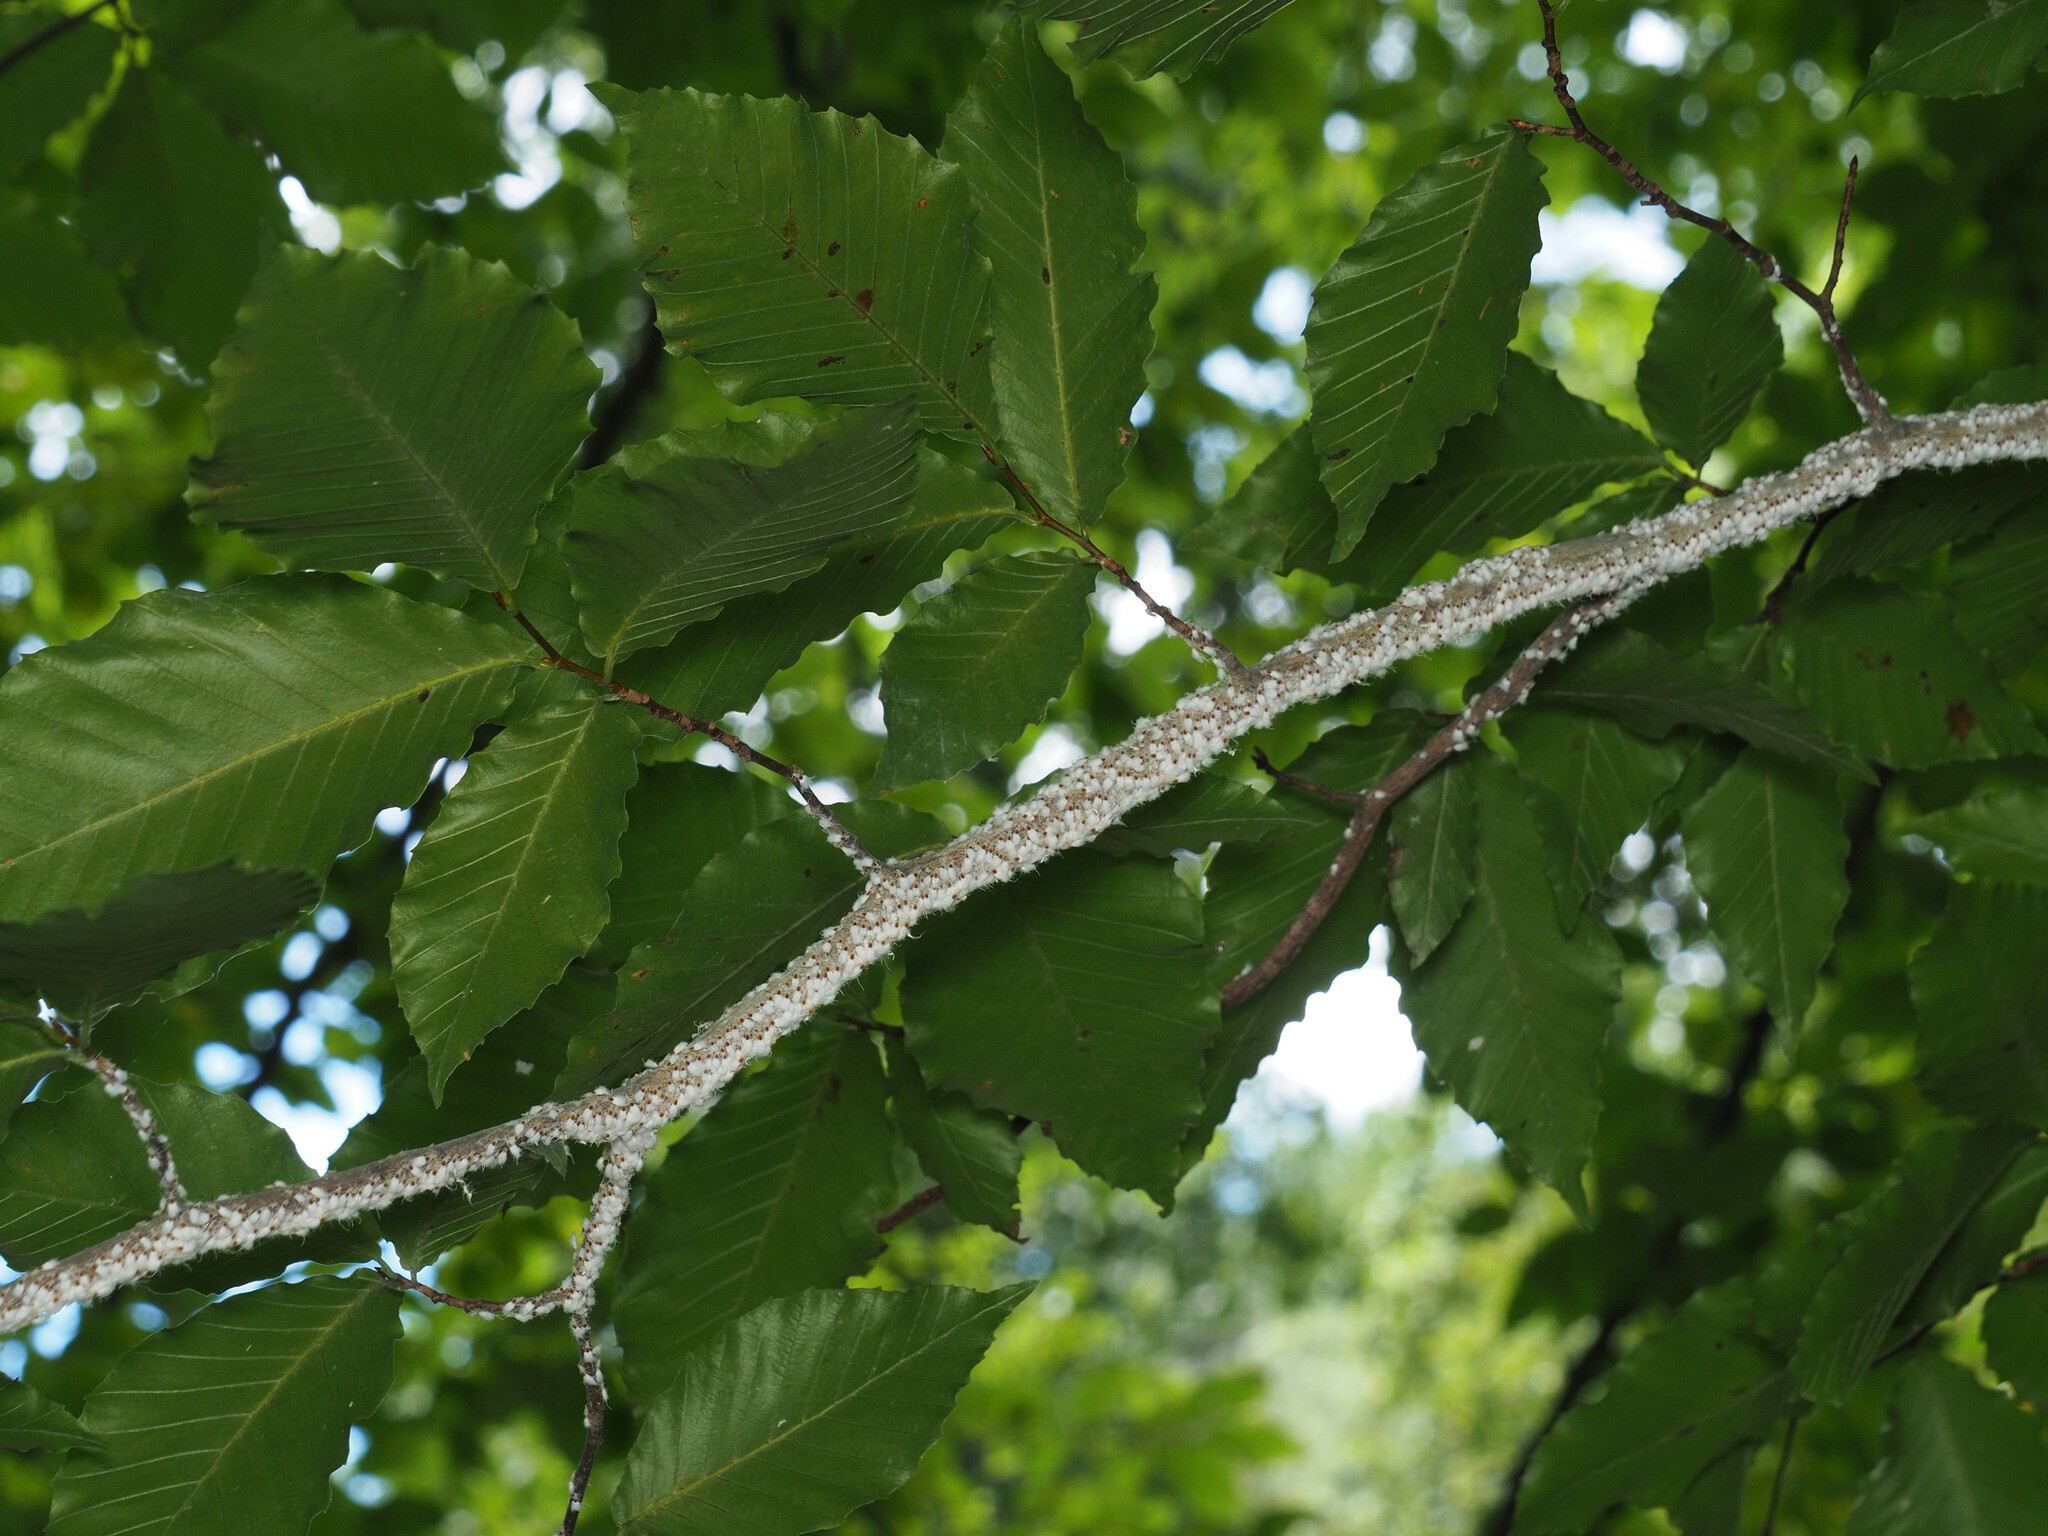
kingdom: Animalia
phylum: Arthropoda
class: Insecta
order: Hemiptera
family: Aphididae
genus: Grylloprociphilus
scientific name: Grylloprociphilus imbricator
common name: Beech blight aphid
